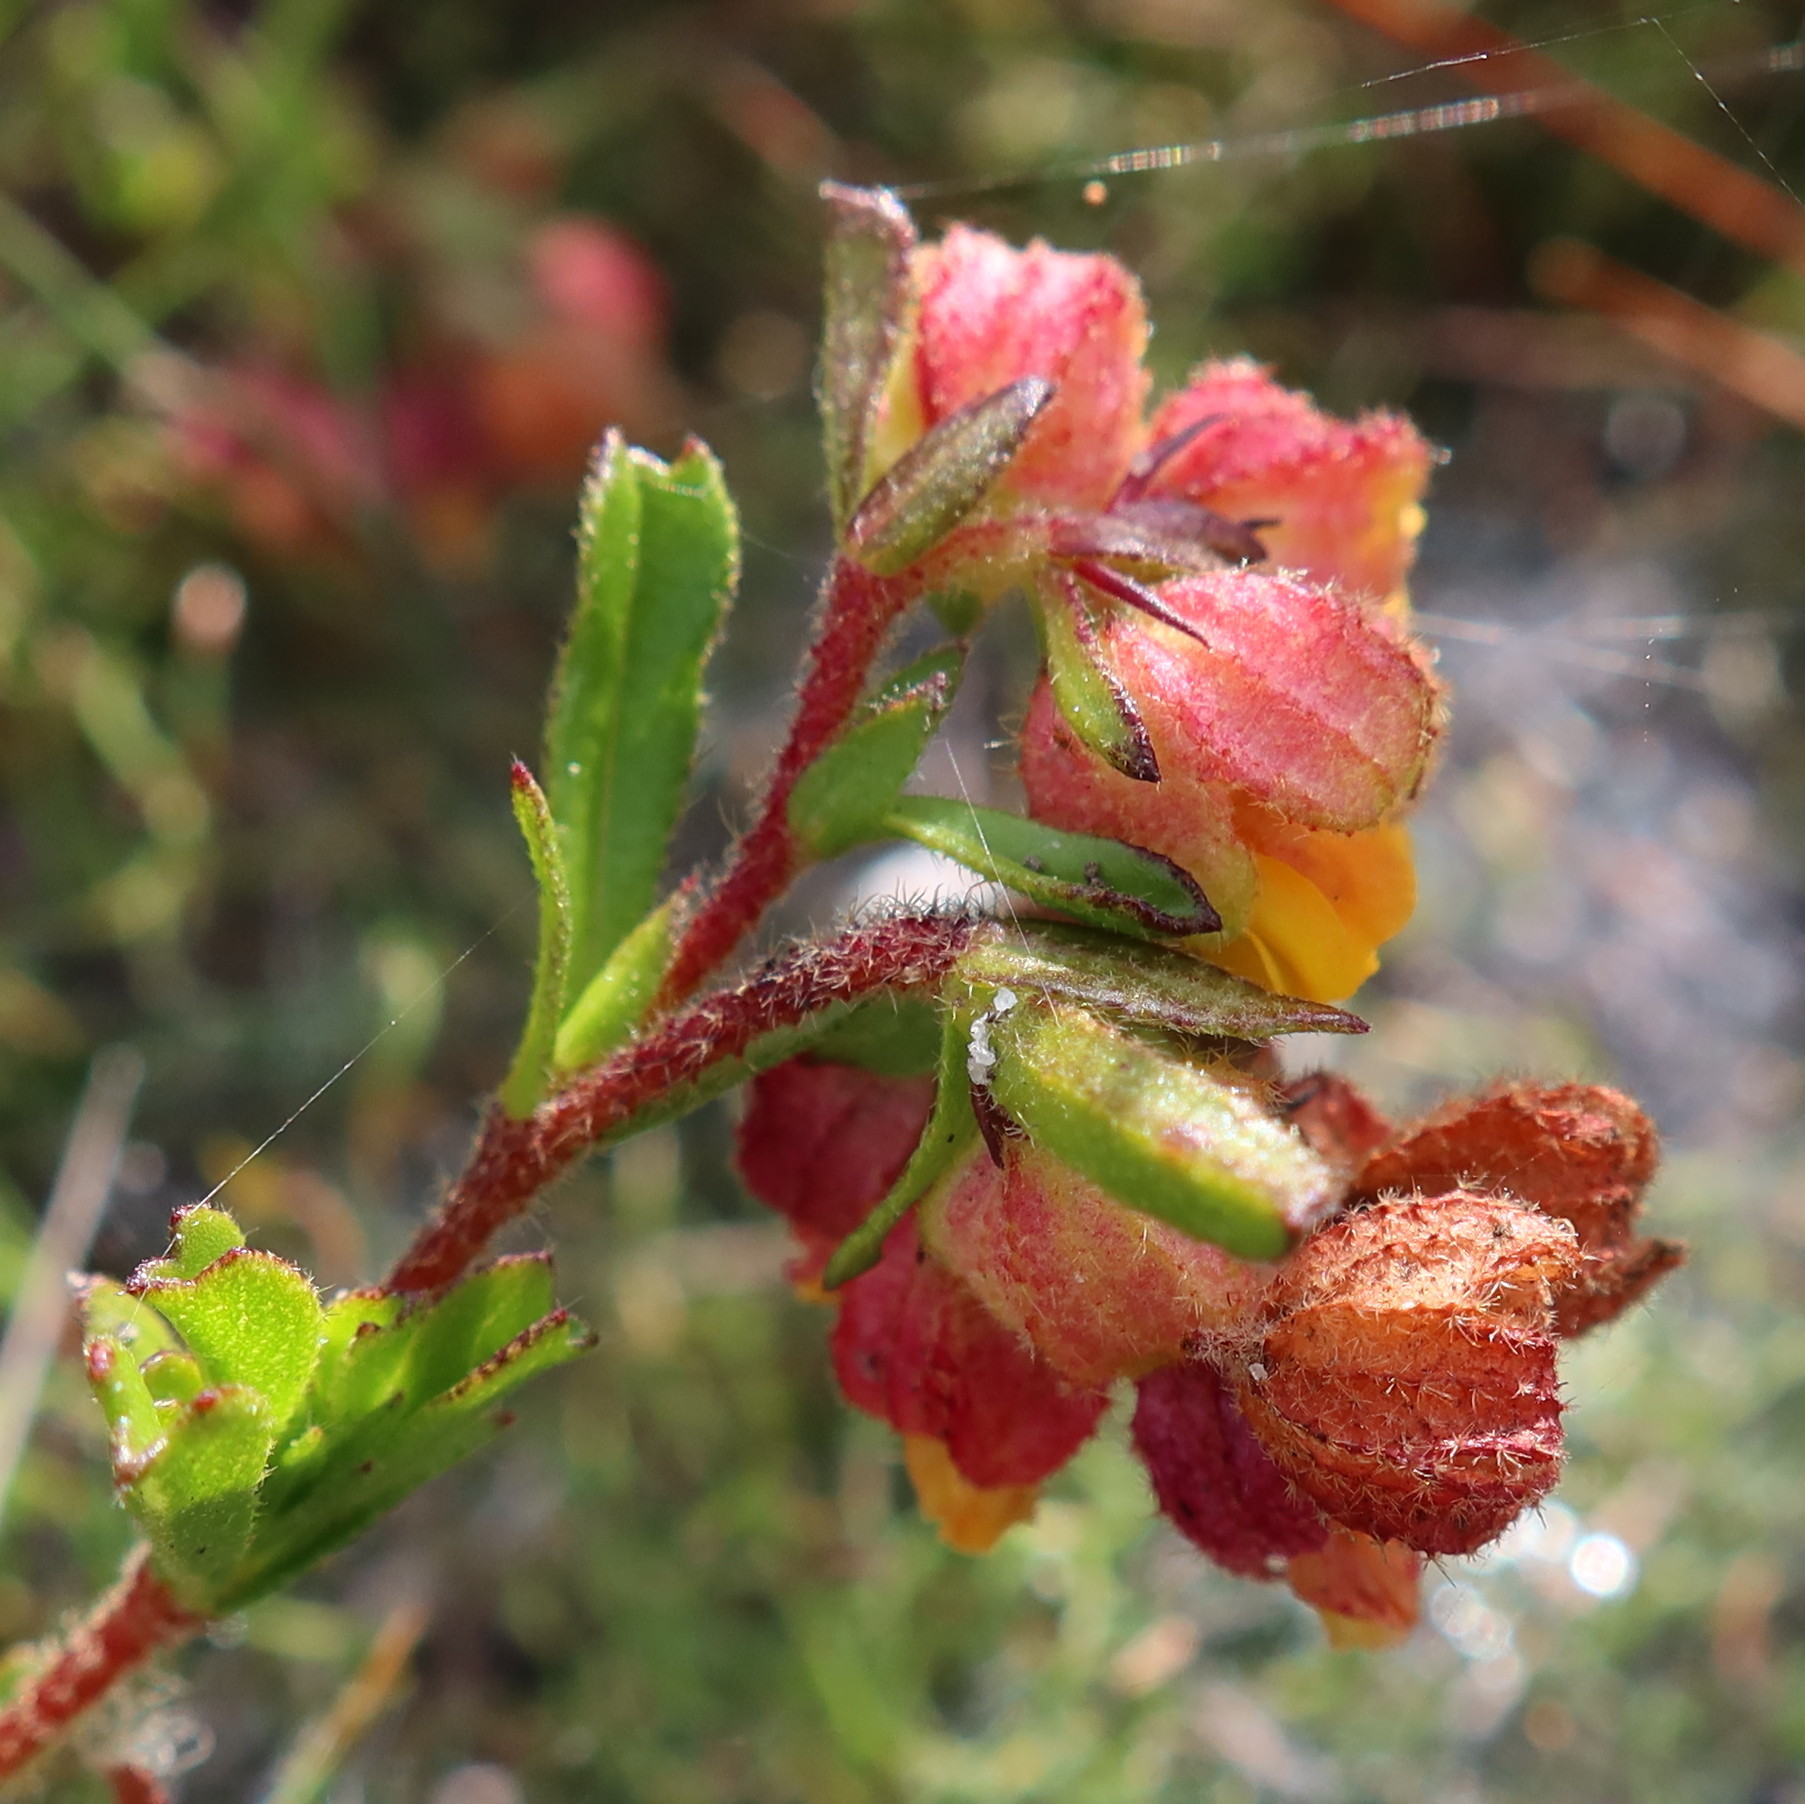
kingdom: Plantae
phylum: Tracheophyta
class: Magnoliopsida
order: Malvales
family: Malvaceae
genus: Hermannia
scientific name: Hermannia rudis
